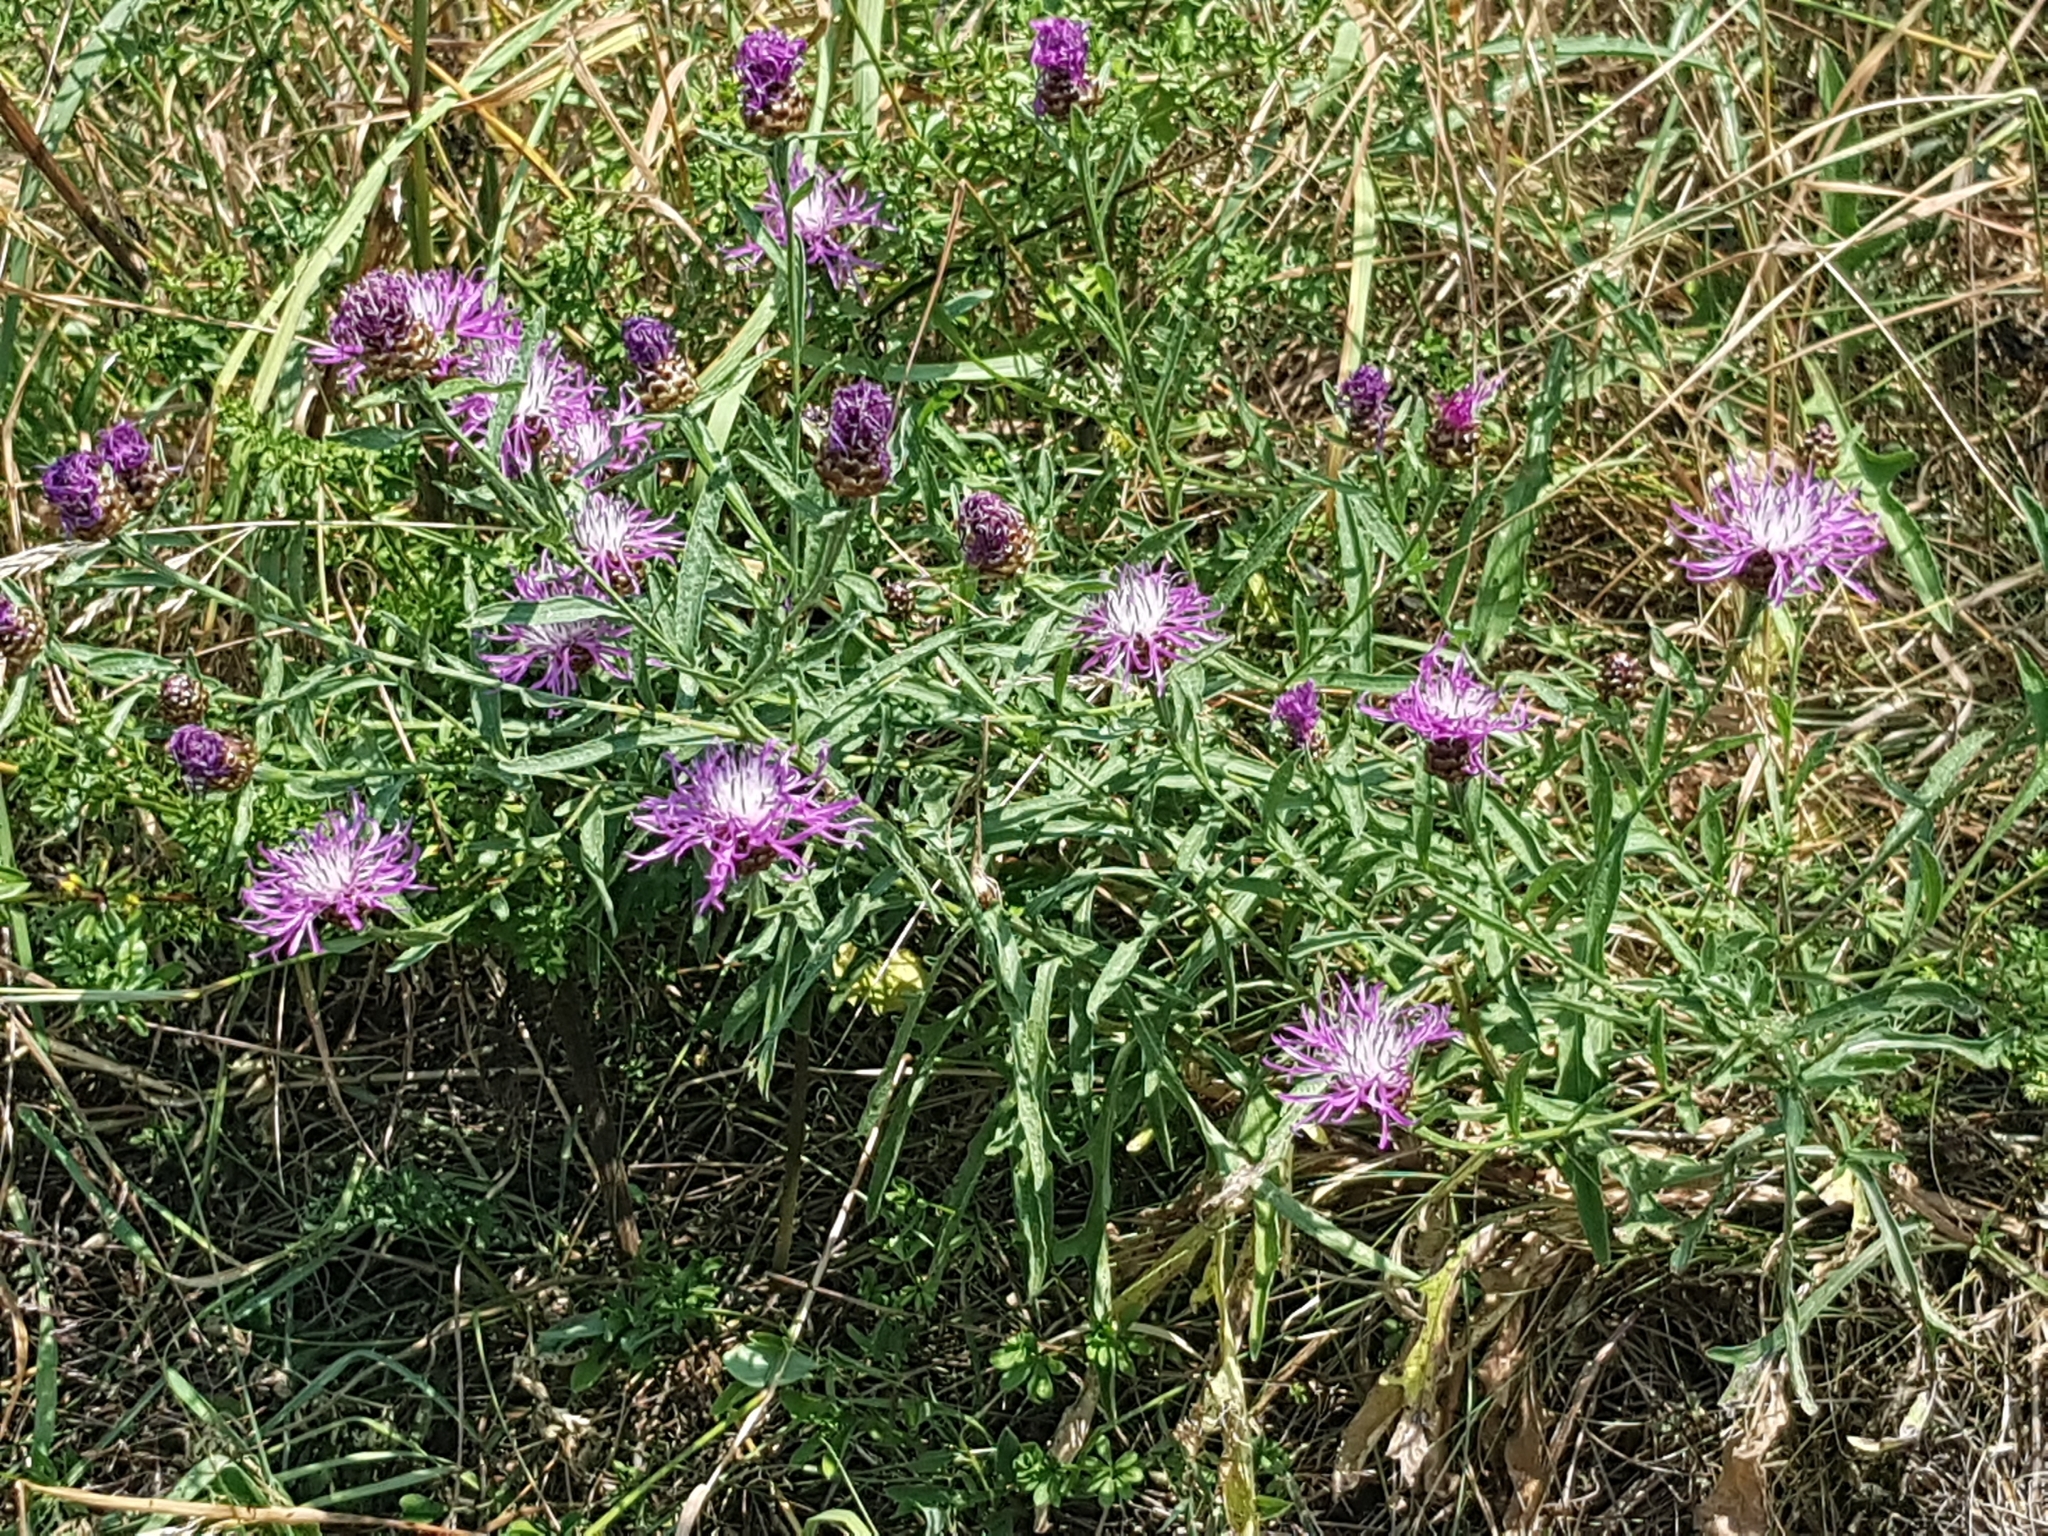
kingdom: Plantae
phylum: Tracheophyta
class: Magnoliopsida
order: Asterales
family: Asteraceae
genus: Centaurea
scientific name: Centaurea jacea
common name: Brown knapweed
